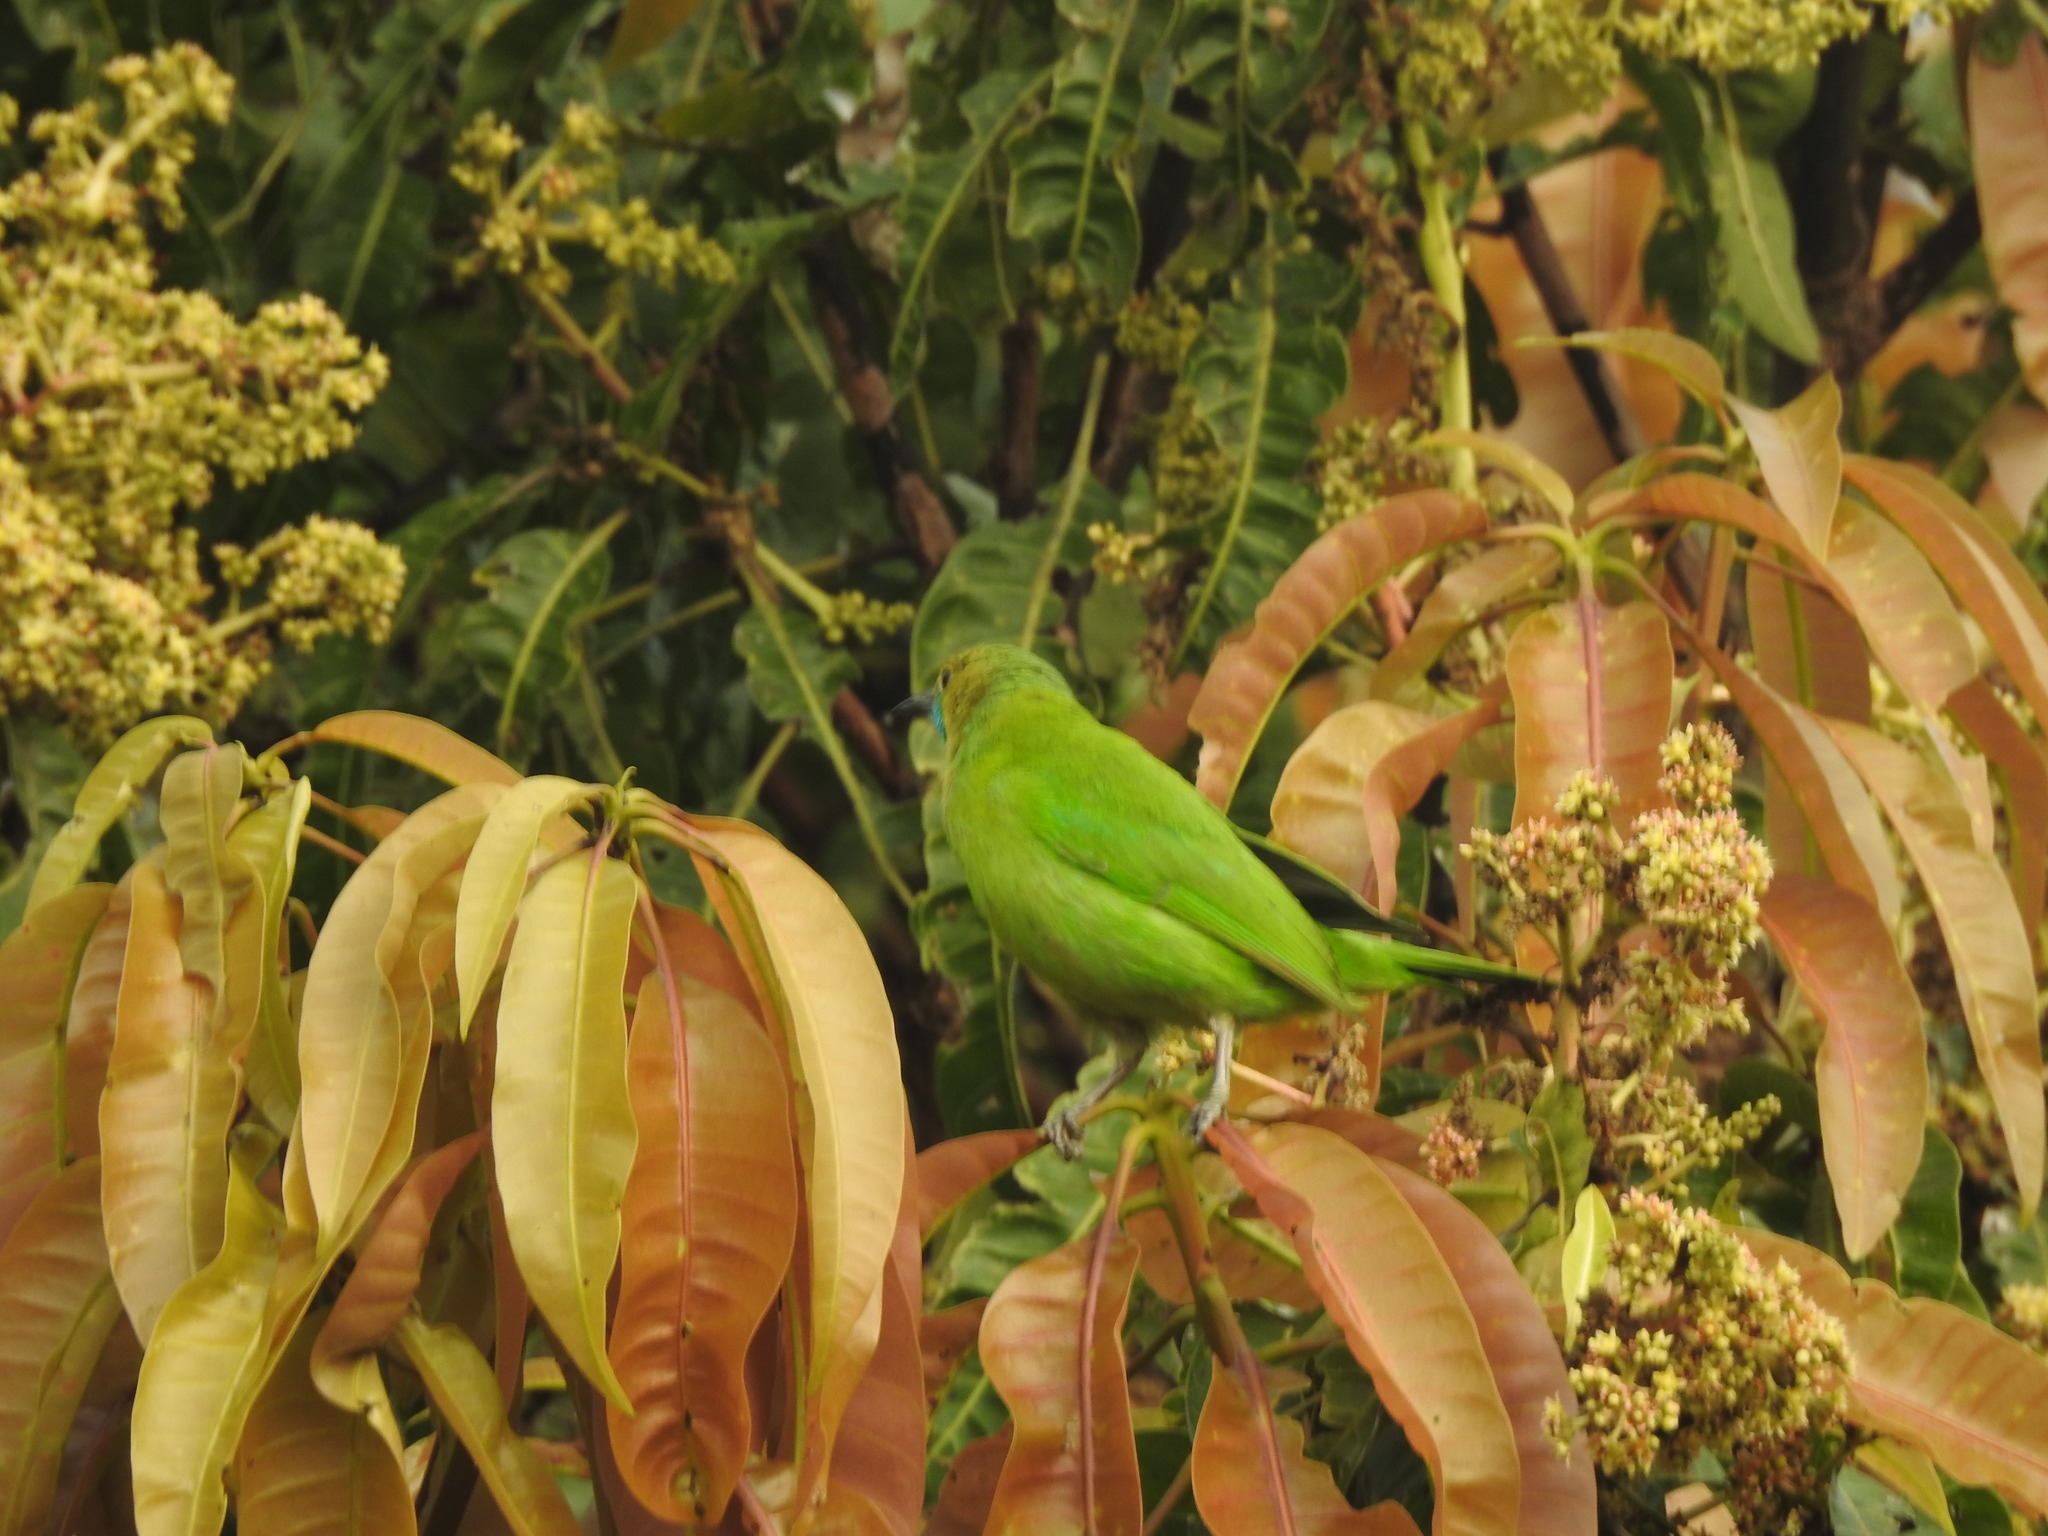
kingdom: Animalia
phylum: Chordata
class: Aves
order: Passeriformes
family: Chloropseidae
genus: Chloropsis
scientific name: Chloropsis jerdoni
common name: Jerdon's leafbird
